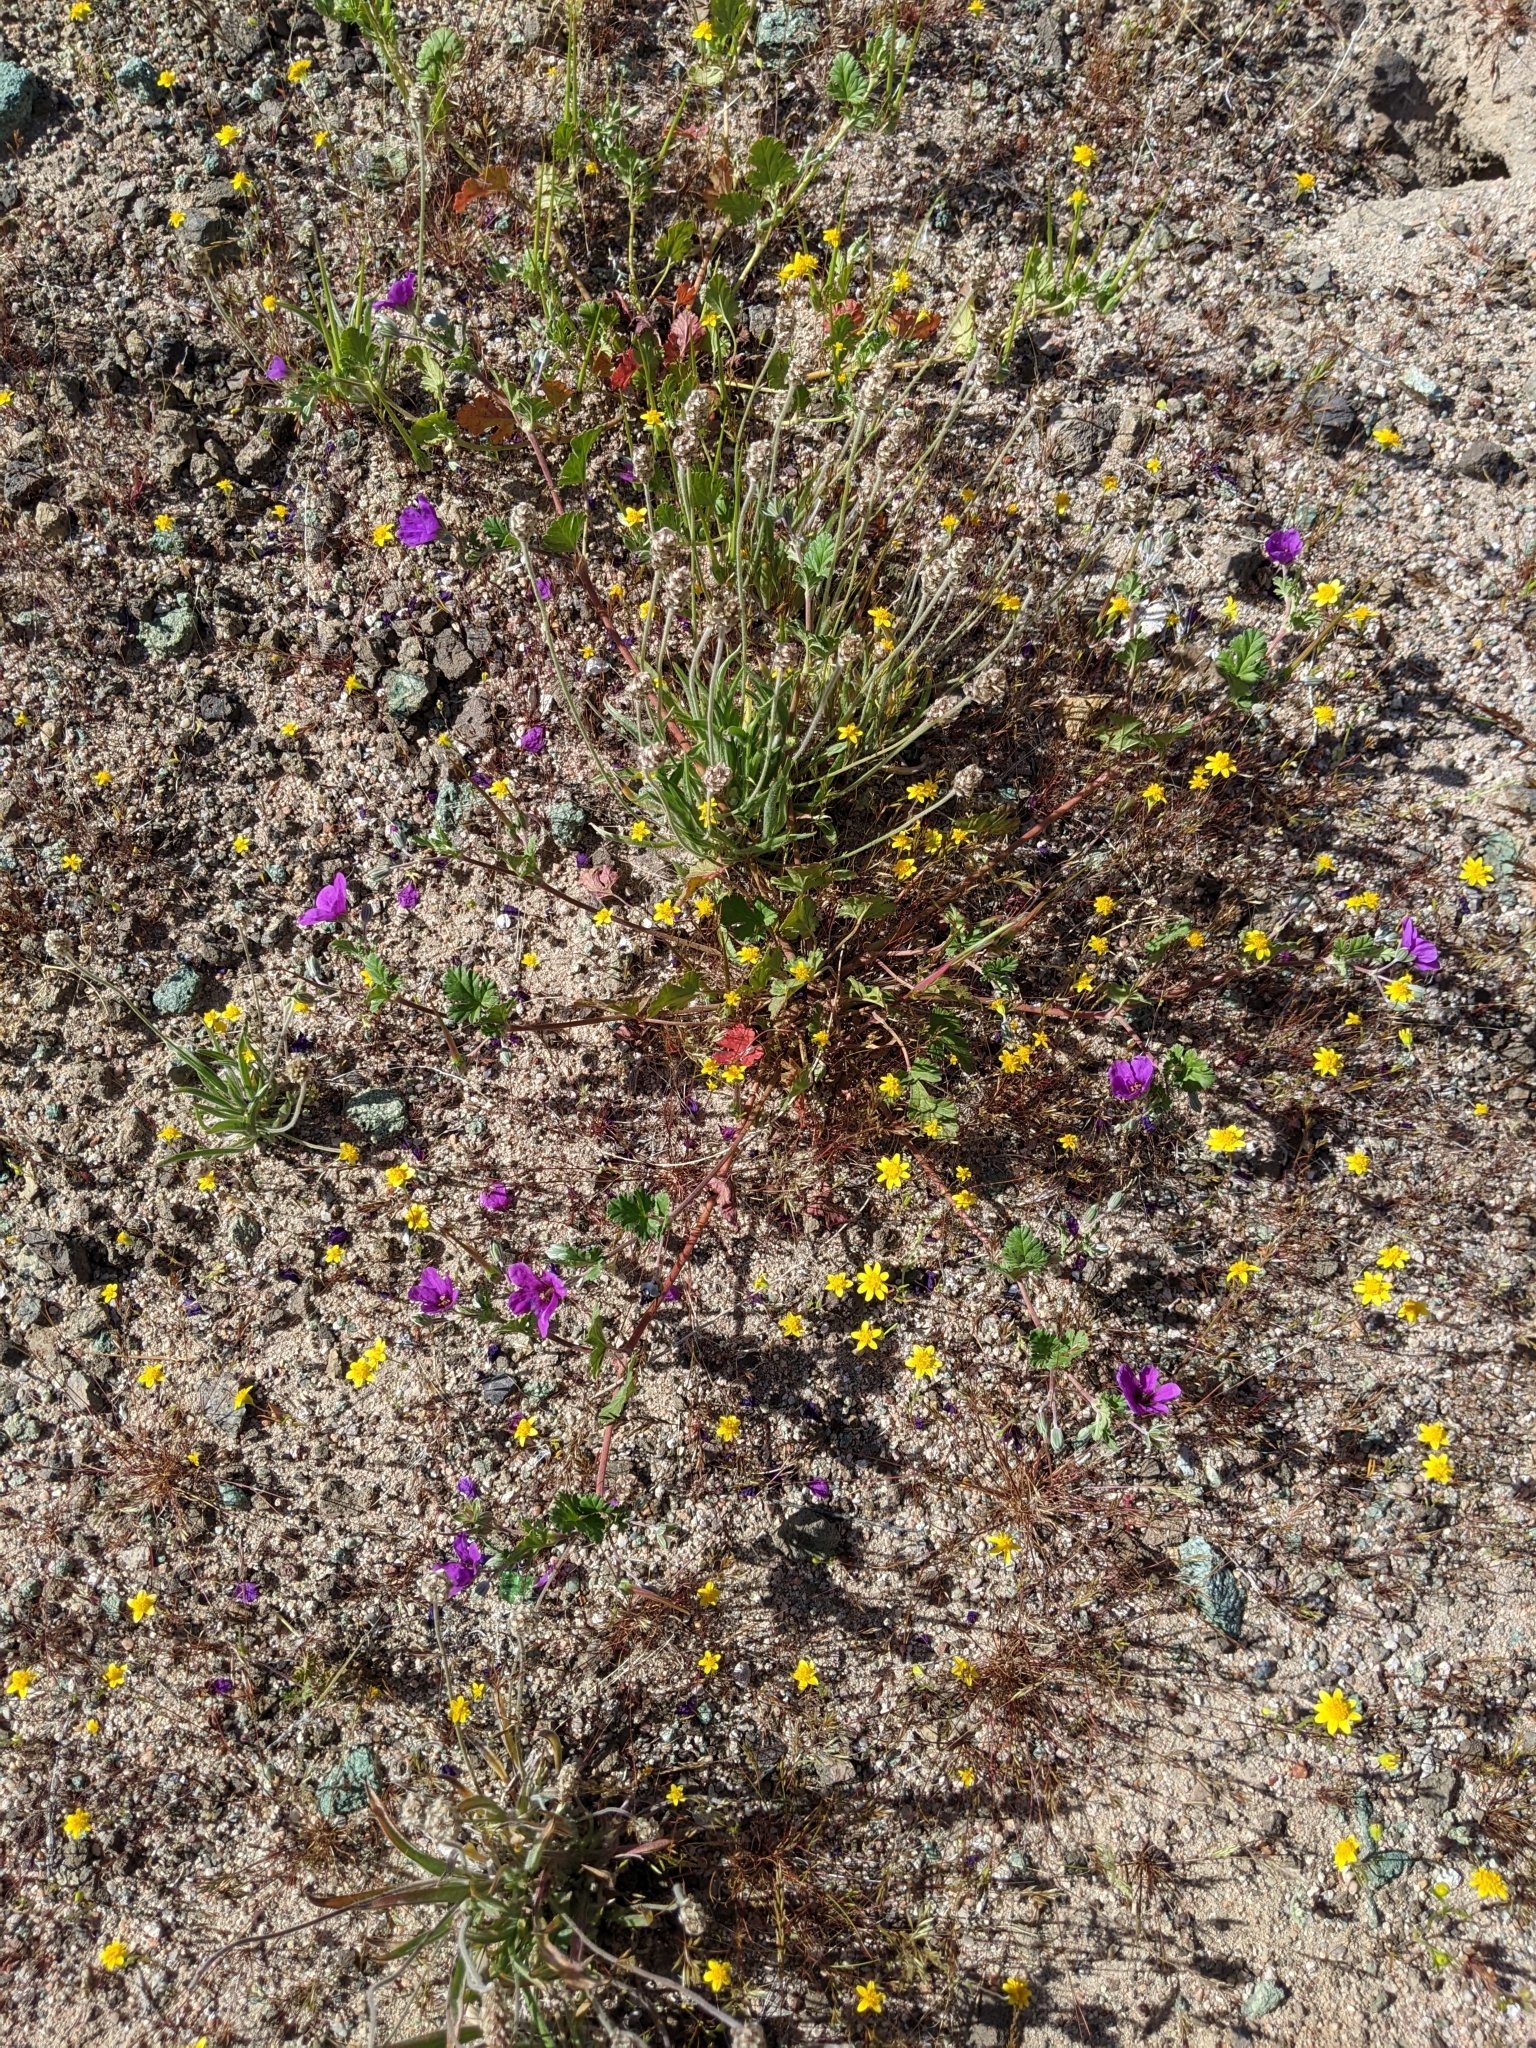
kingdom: Plantae
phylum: Tracheophyta
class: Magnoliopsida
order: Geraniales
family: Geraniaceae
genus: Erodium
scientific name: Erodium texanum
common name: Texas stork's-bill
